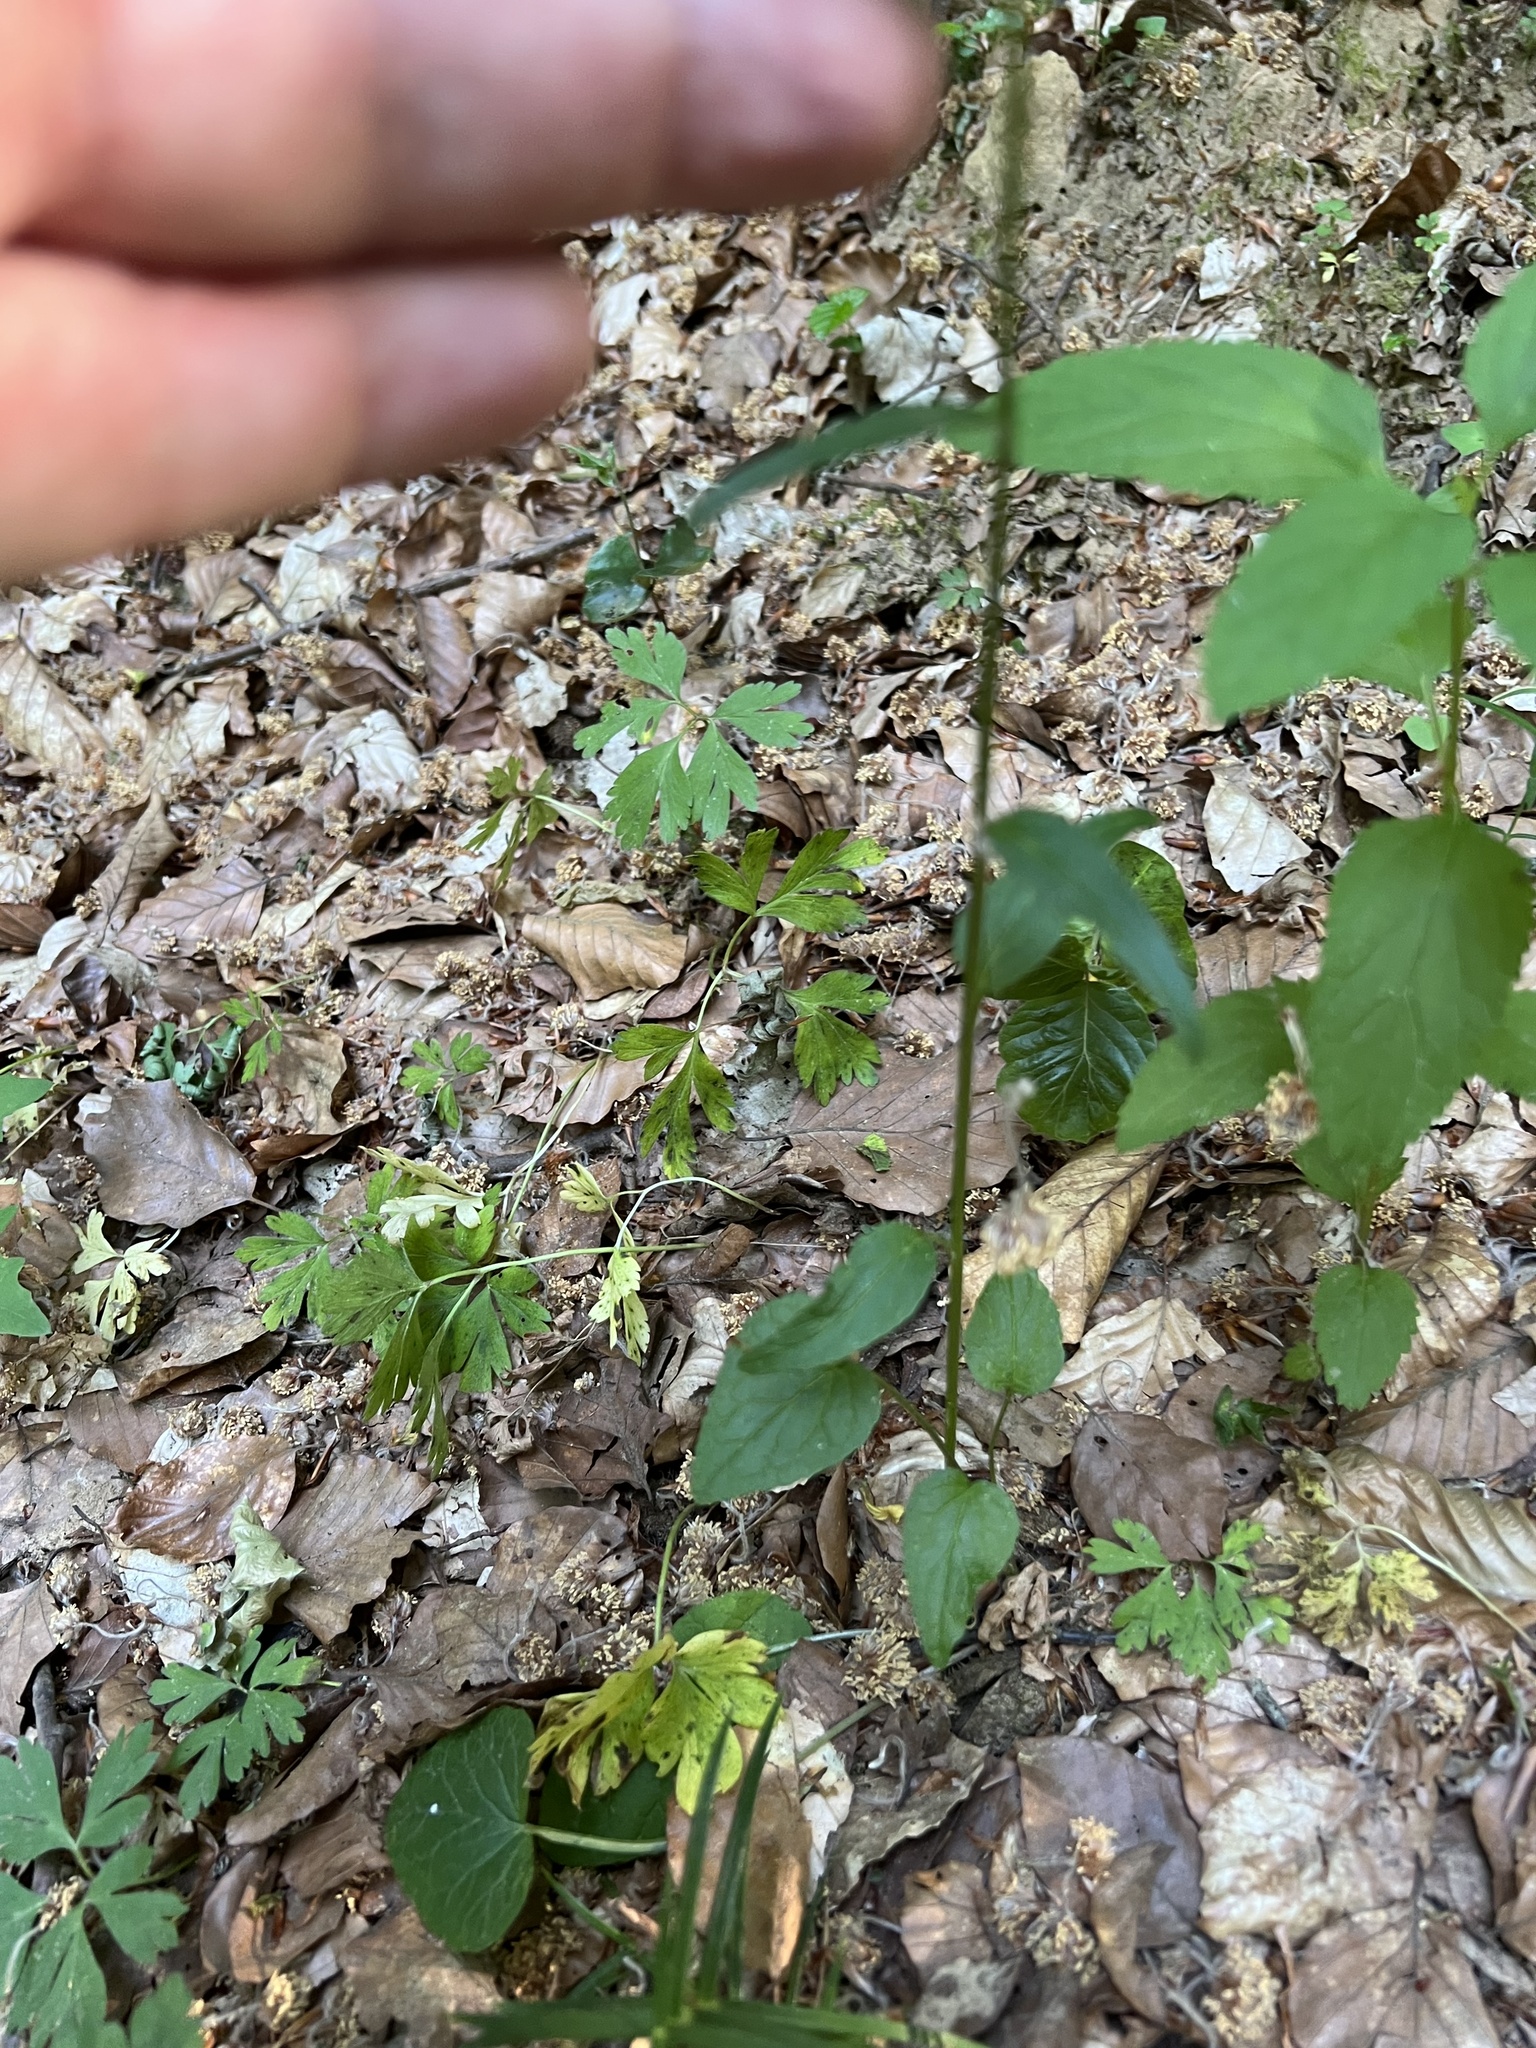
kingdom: Plantae
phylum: Tracheophyta
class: Magnoliopsida
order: Asterales
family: Campanulaceae
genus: Phyteuma
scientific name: Phyteuma nigrum
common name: Black rampion
